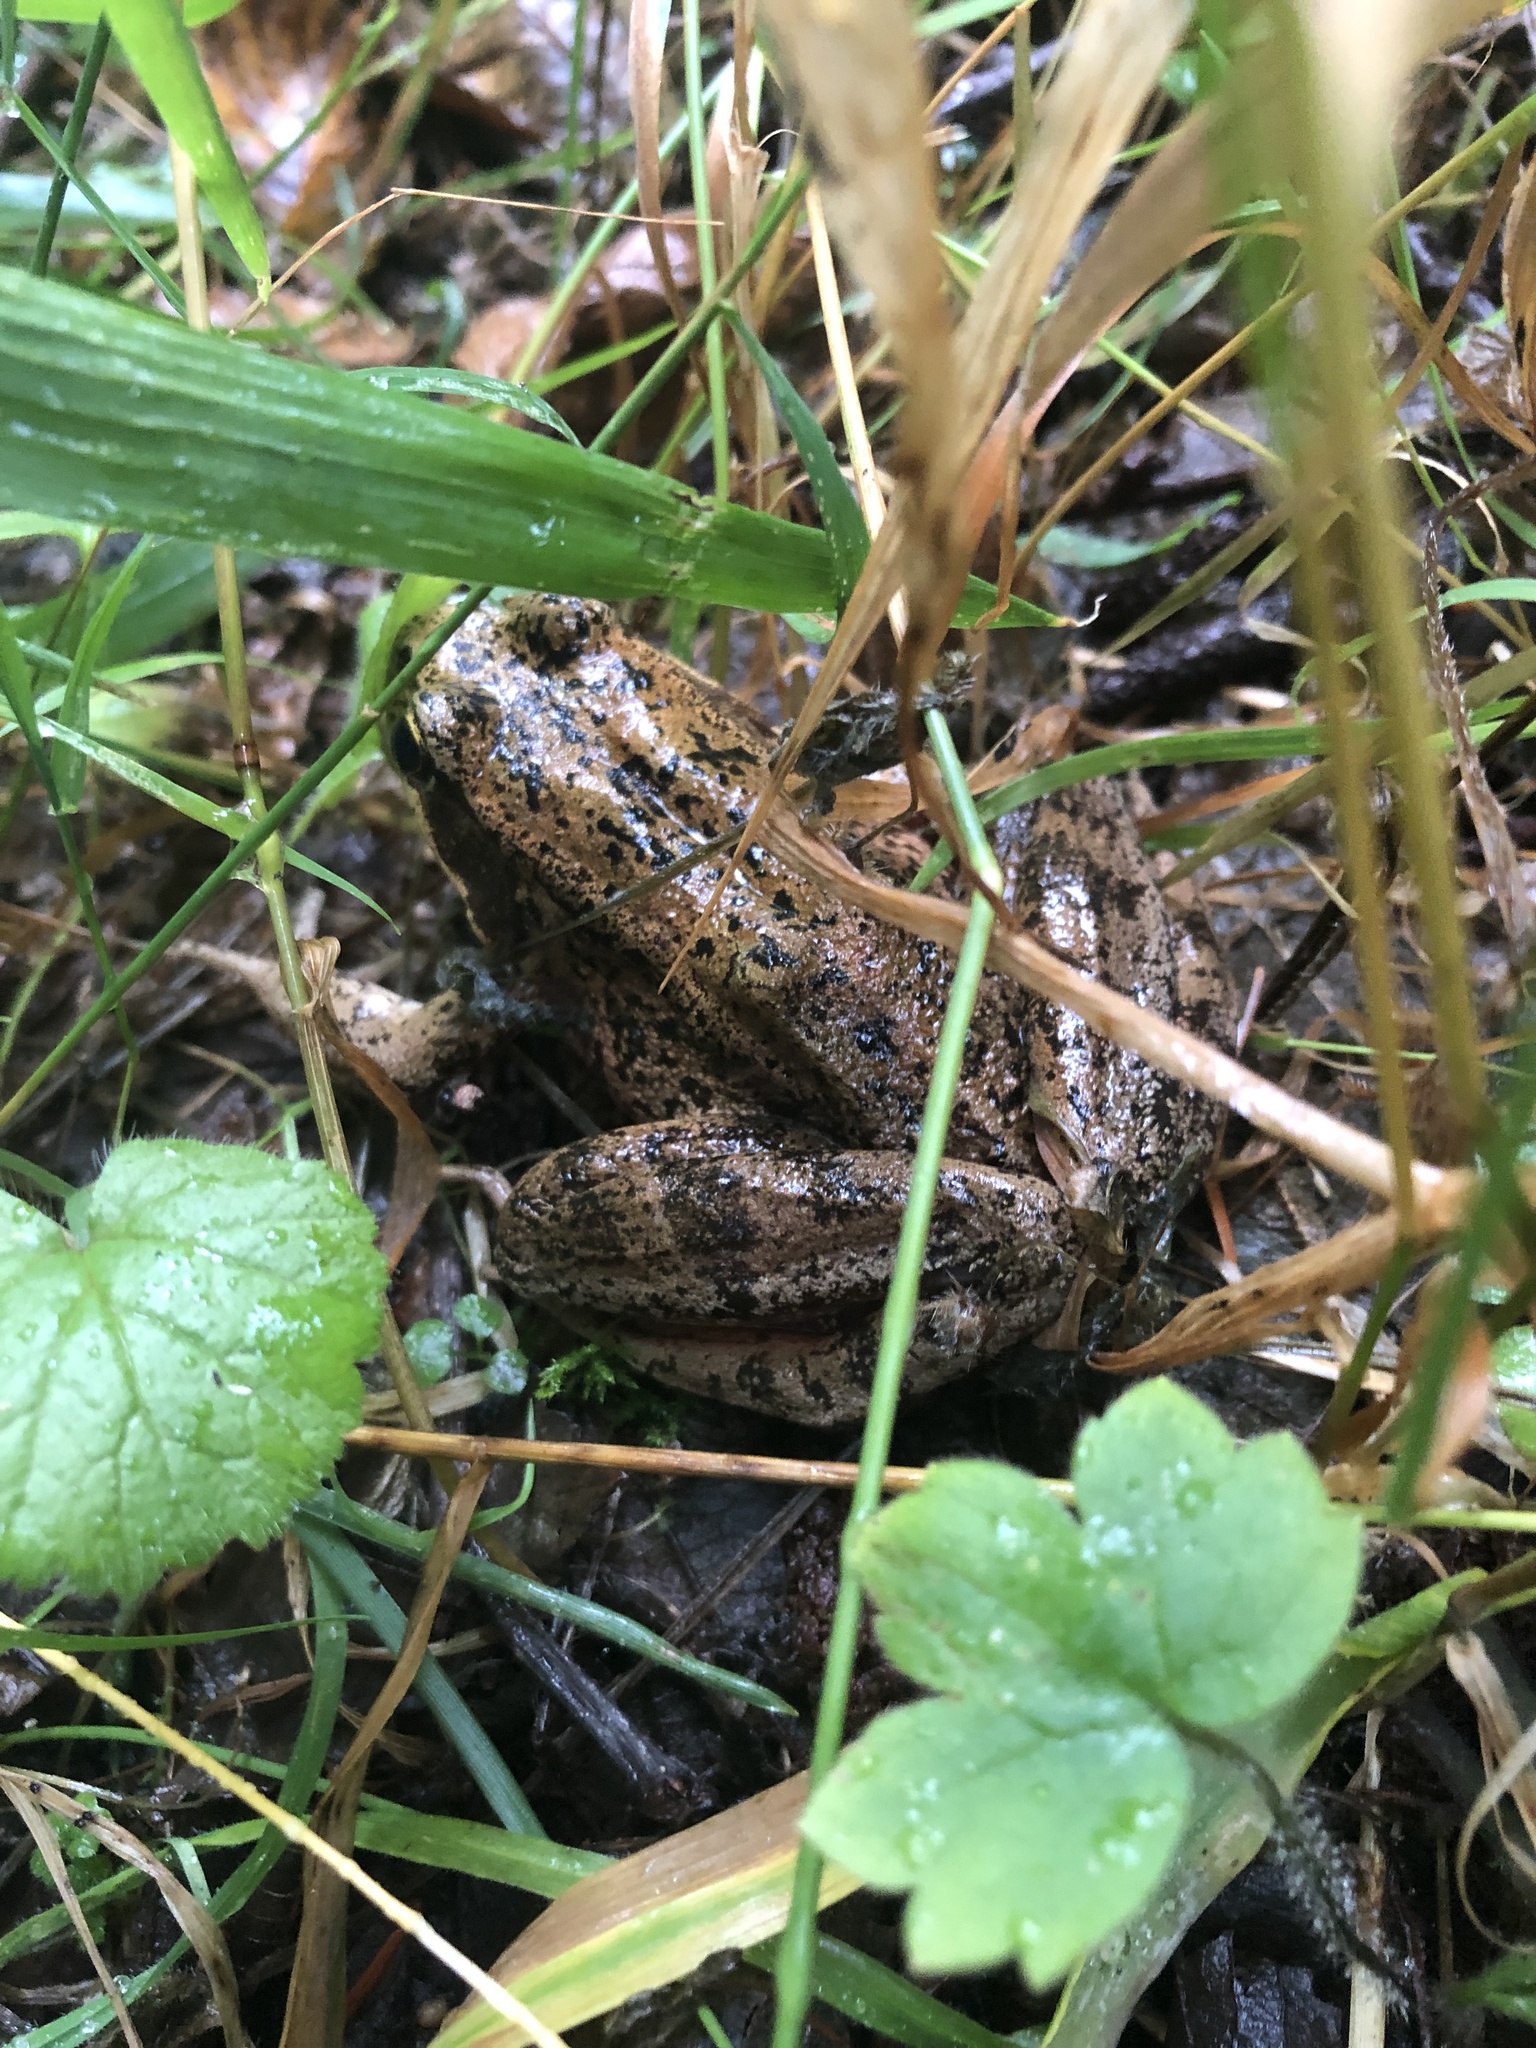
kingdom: Animalia
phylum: Chordata
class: Amphibia
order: Anura
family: Ranidae
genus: Rana
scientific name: Rana aurora
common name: Red-legged frog
